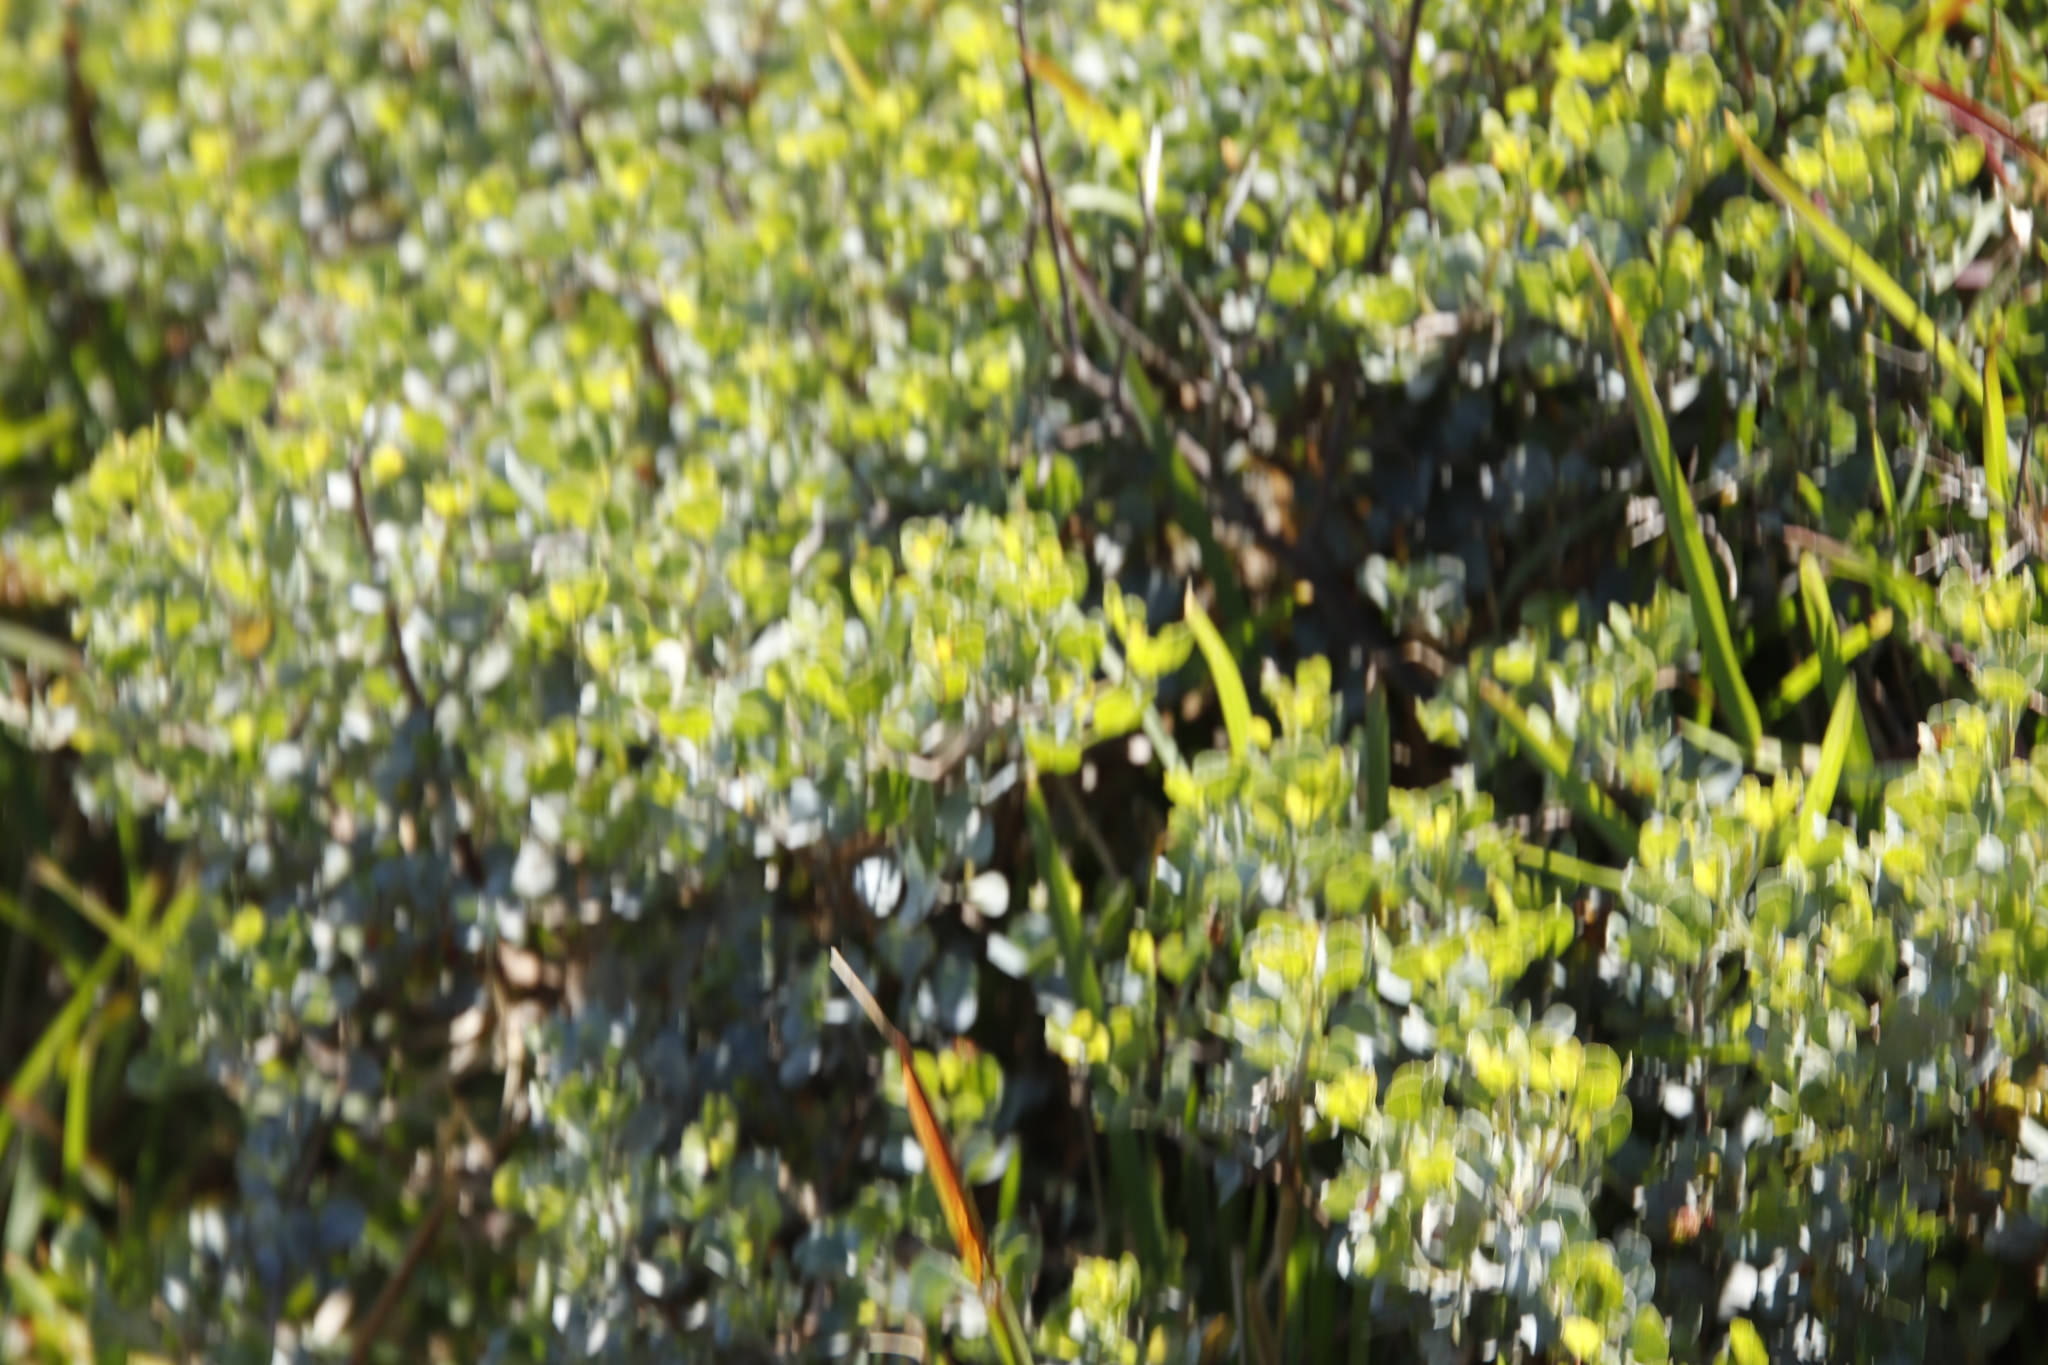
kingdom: Plantae
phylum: Tracheophyta
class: Magnoliopsida
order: Sapindales
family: Anacardiaceae
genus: Searsia
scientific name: Searsia glauca
